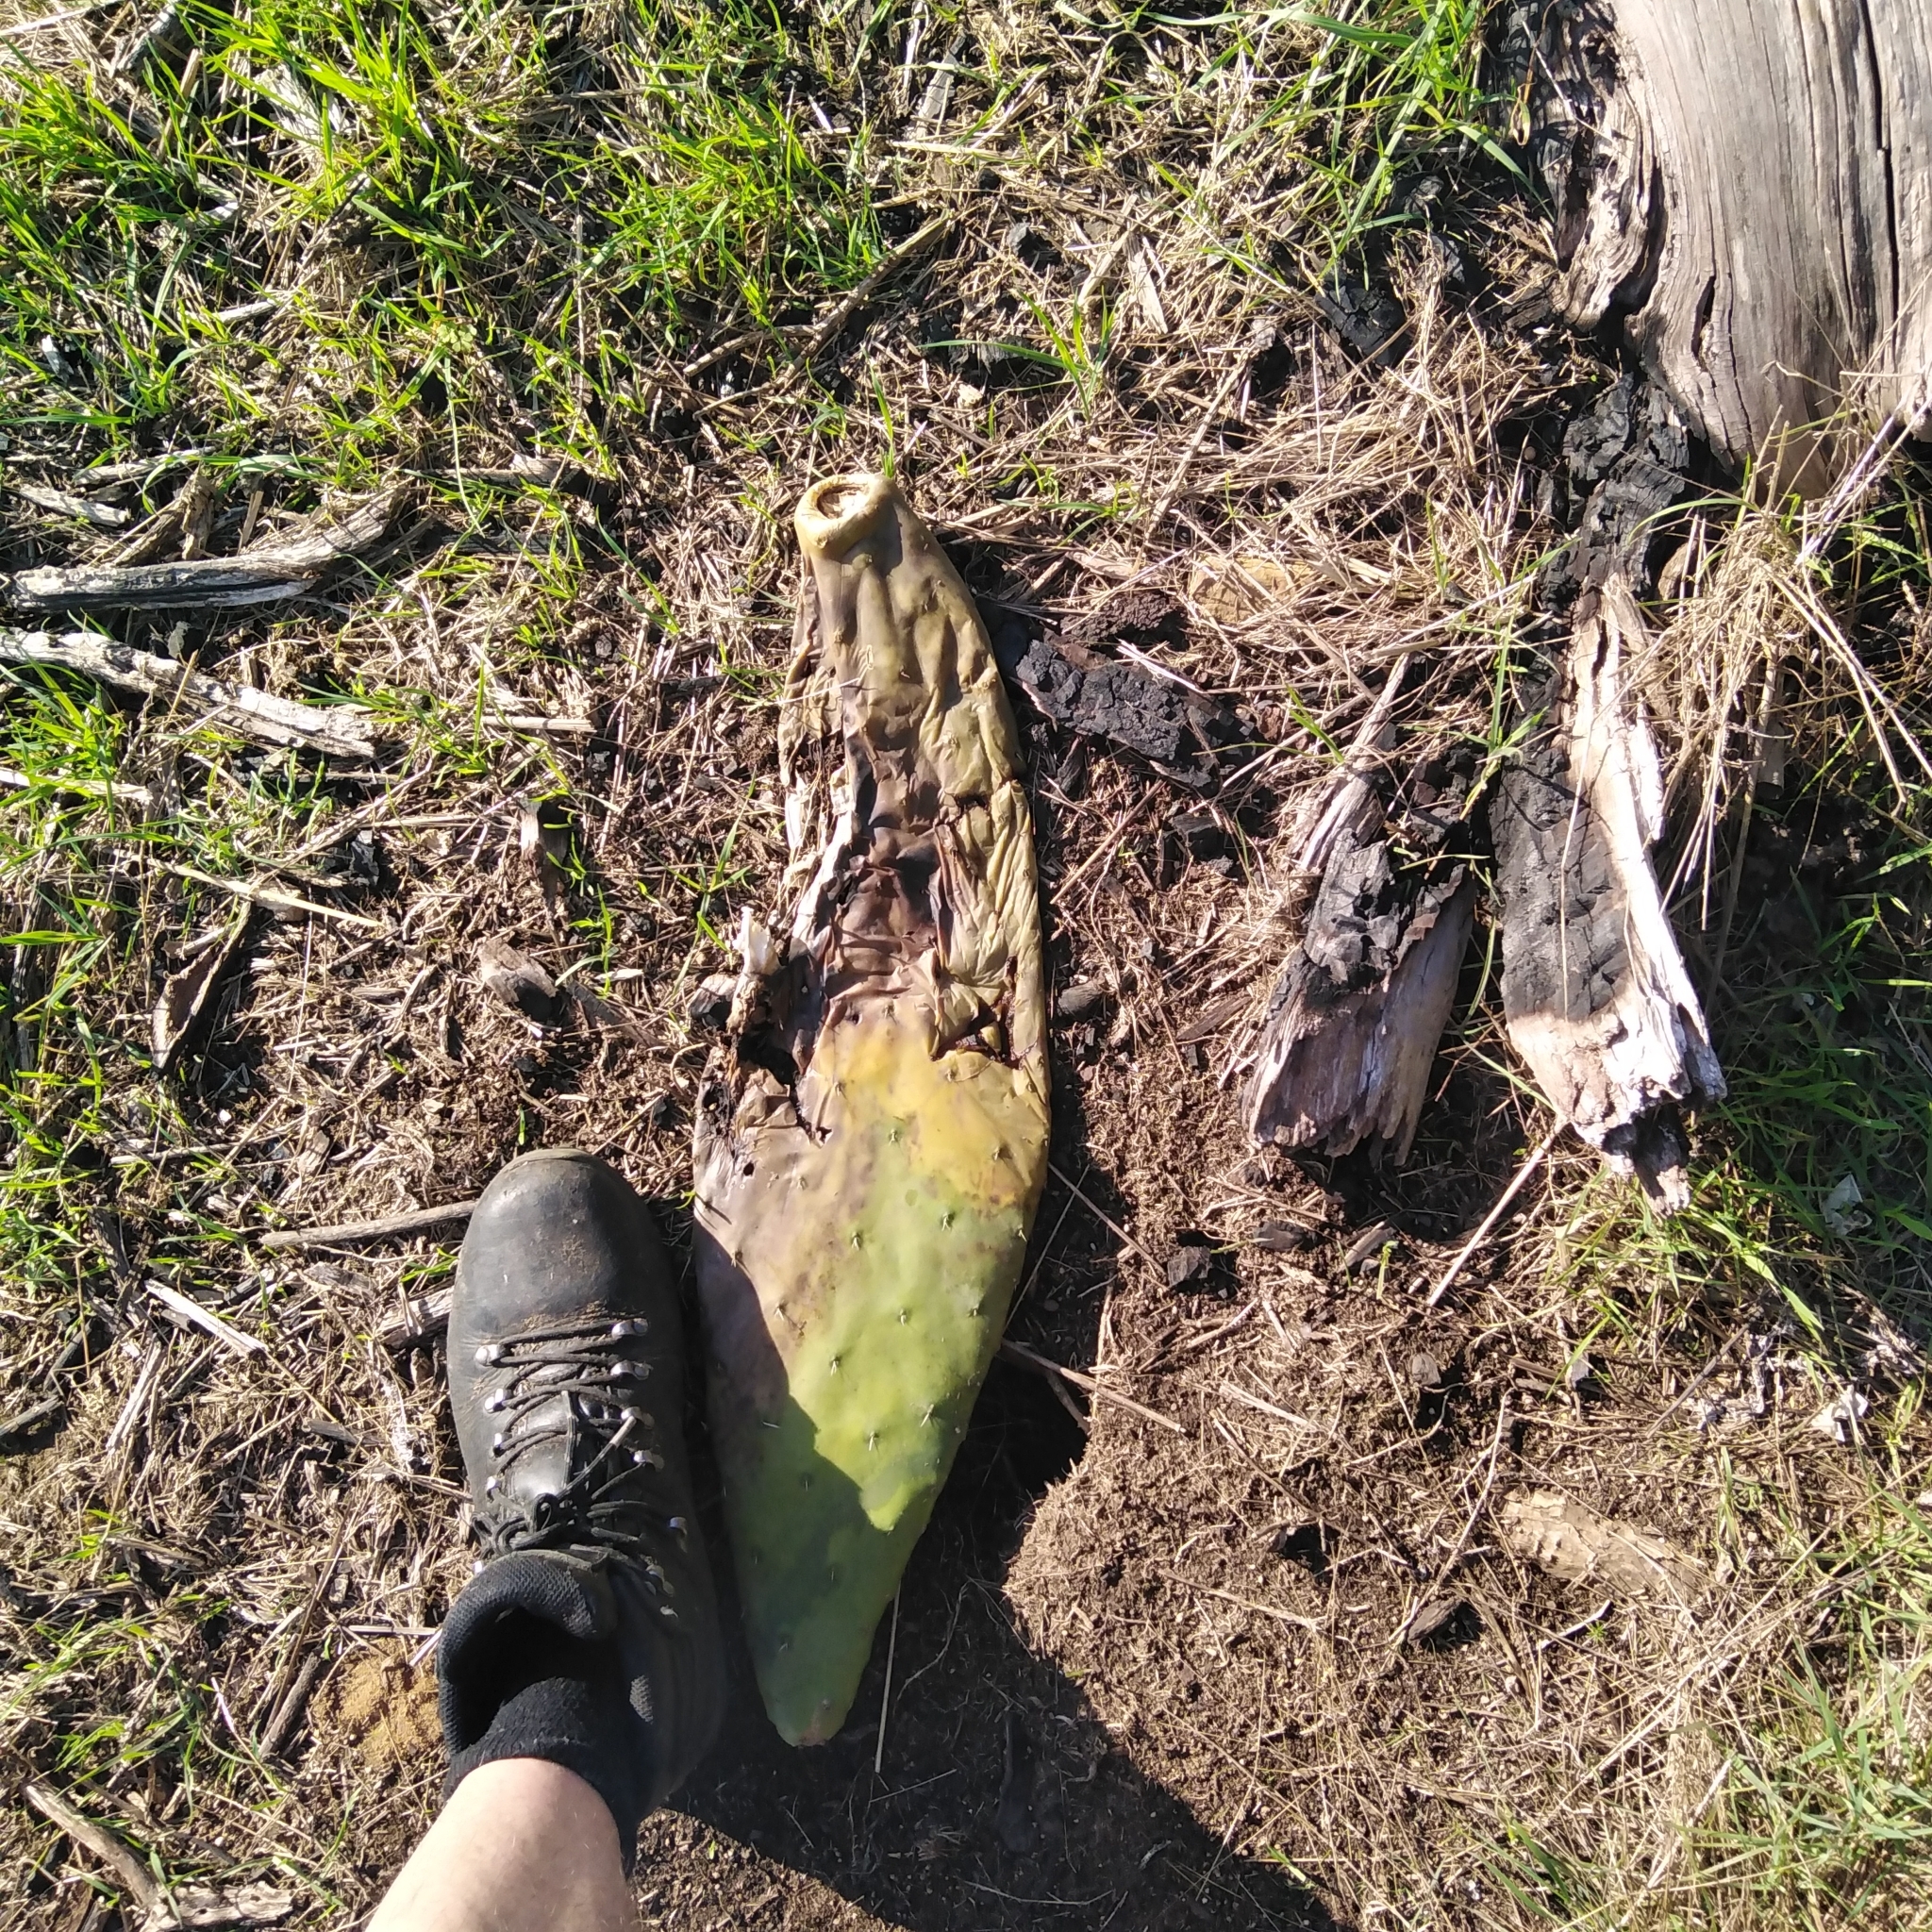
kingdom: Plantae
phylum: Tracheophyta
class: Magnoliopsida
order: Caryophyllales
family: Cactaceae
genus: Opuntia
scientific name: Opuntia ficus-indica
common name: Barbary fig
